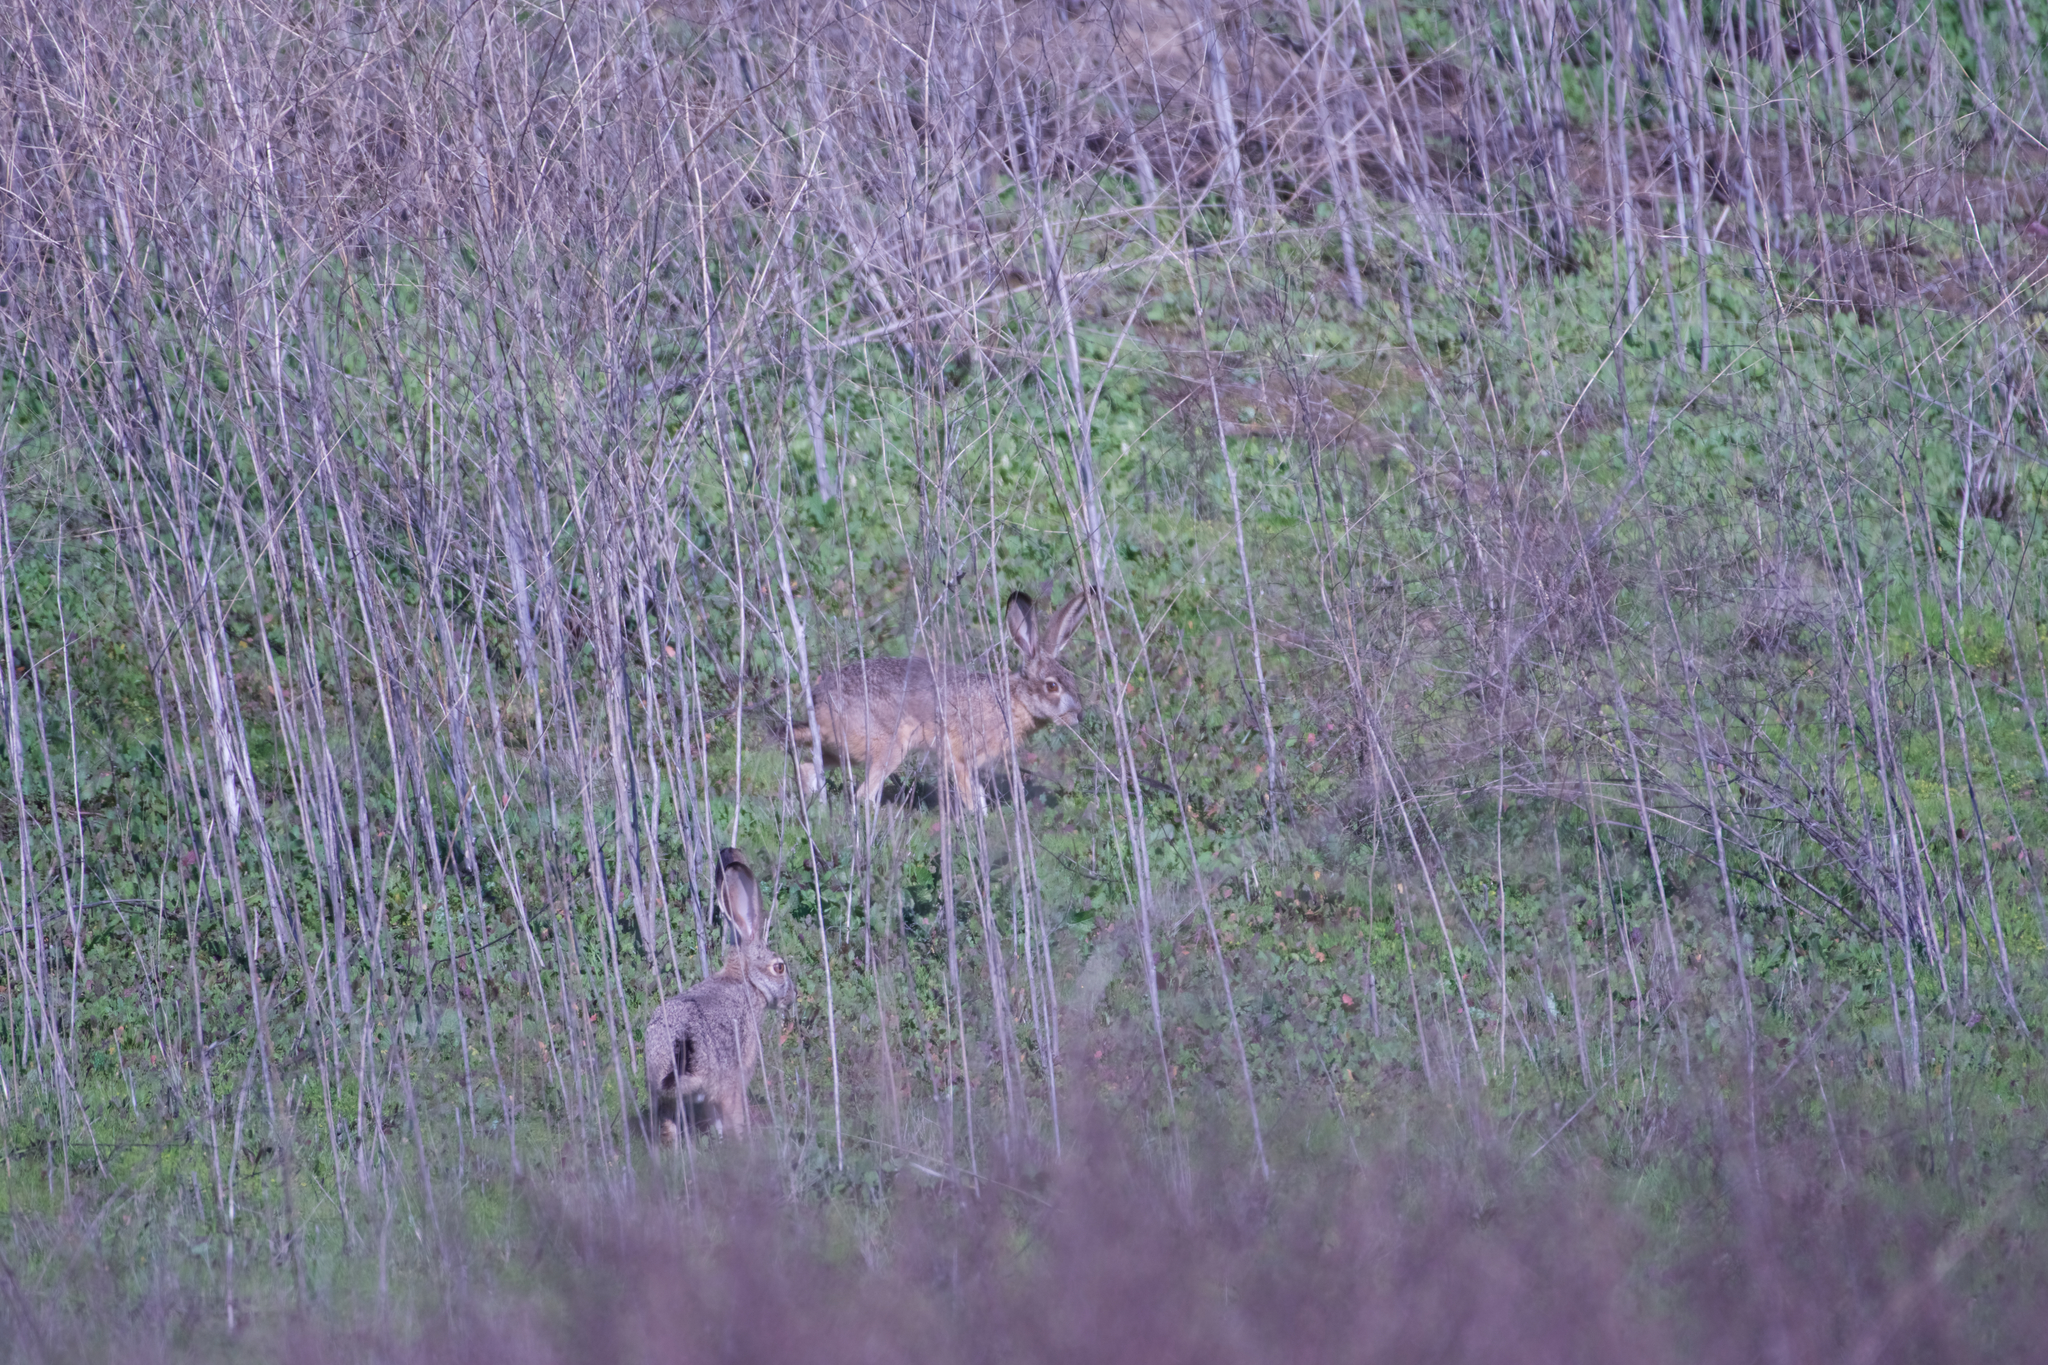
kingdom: Animalia
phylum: Chordata
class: Mammalia
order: Lagomorpha
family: Leporidae
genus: Lepus
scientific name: Lepus californicus
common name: Black-tailed jackrabbit
